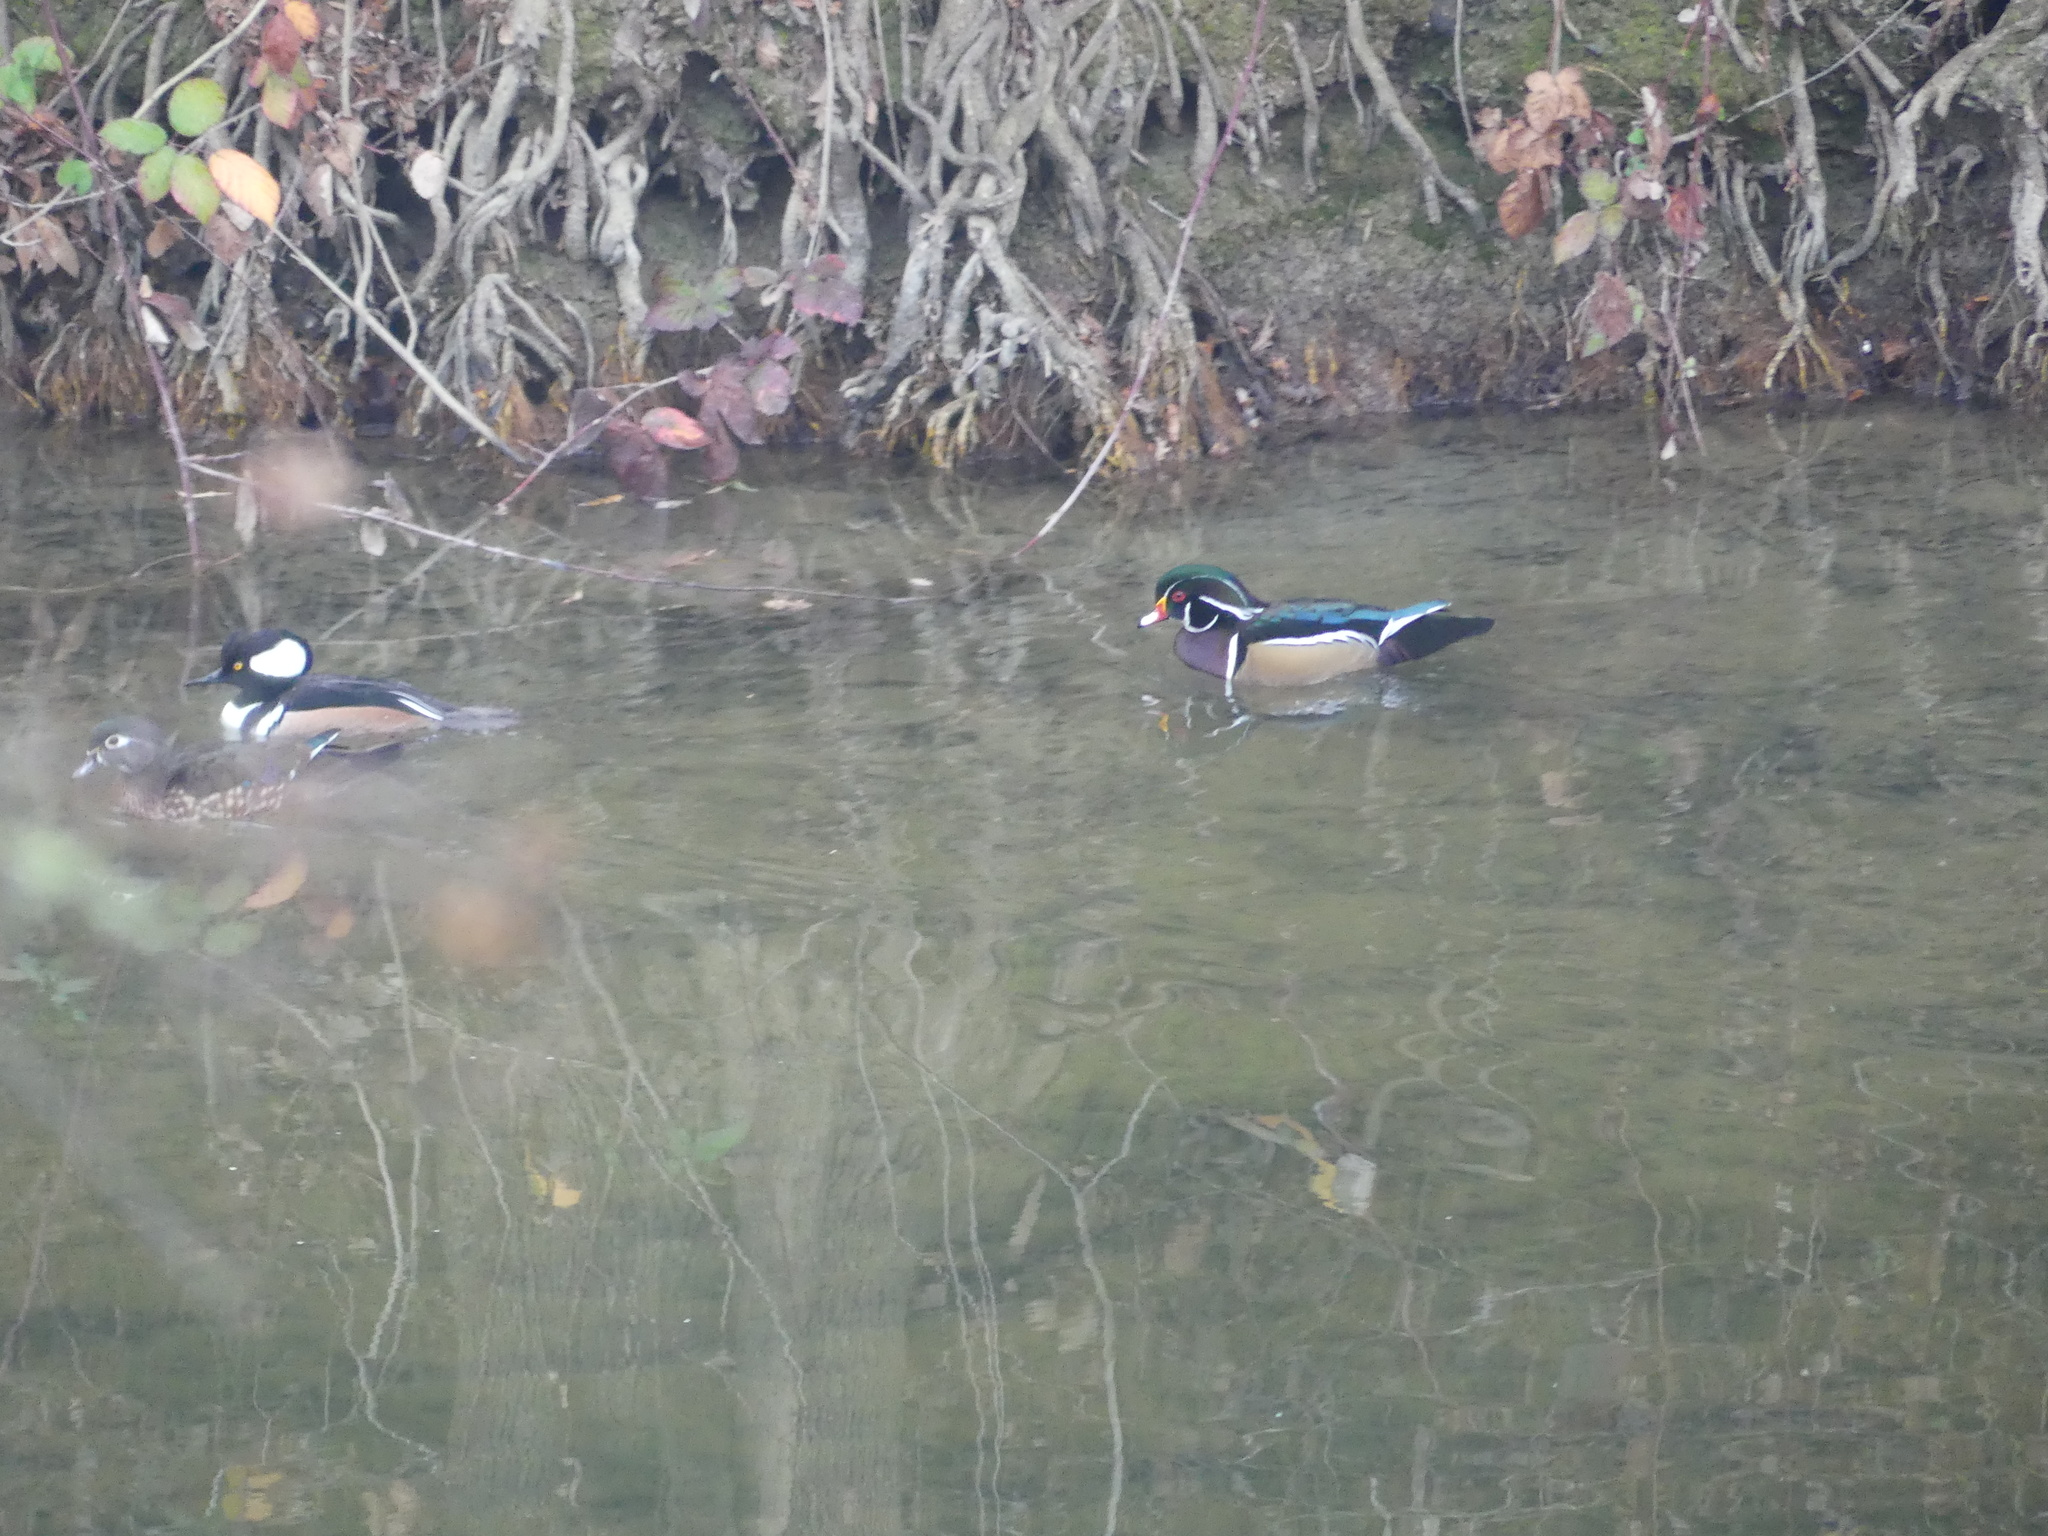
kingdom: Animalia
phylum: Chordata
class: Aves
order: Anseriformes
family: Anatidae
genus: Aix
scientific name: Aix sponsa
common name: Wood duck
